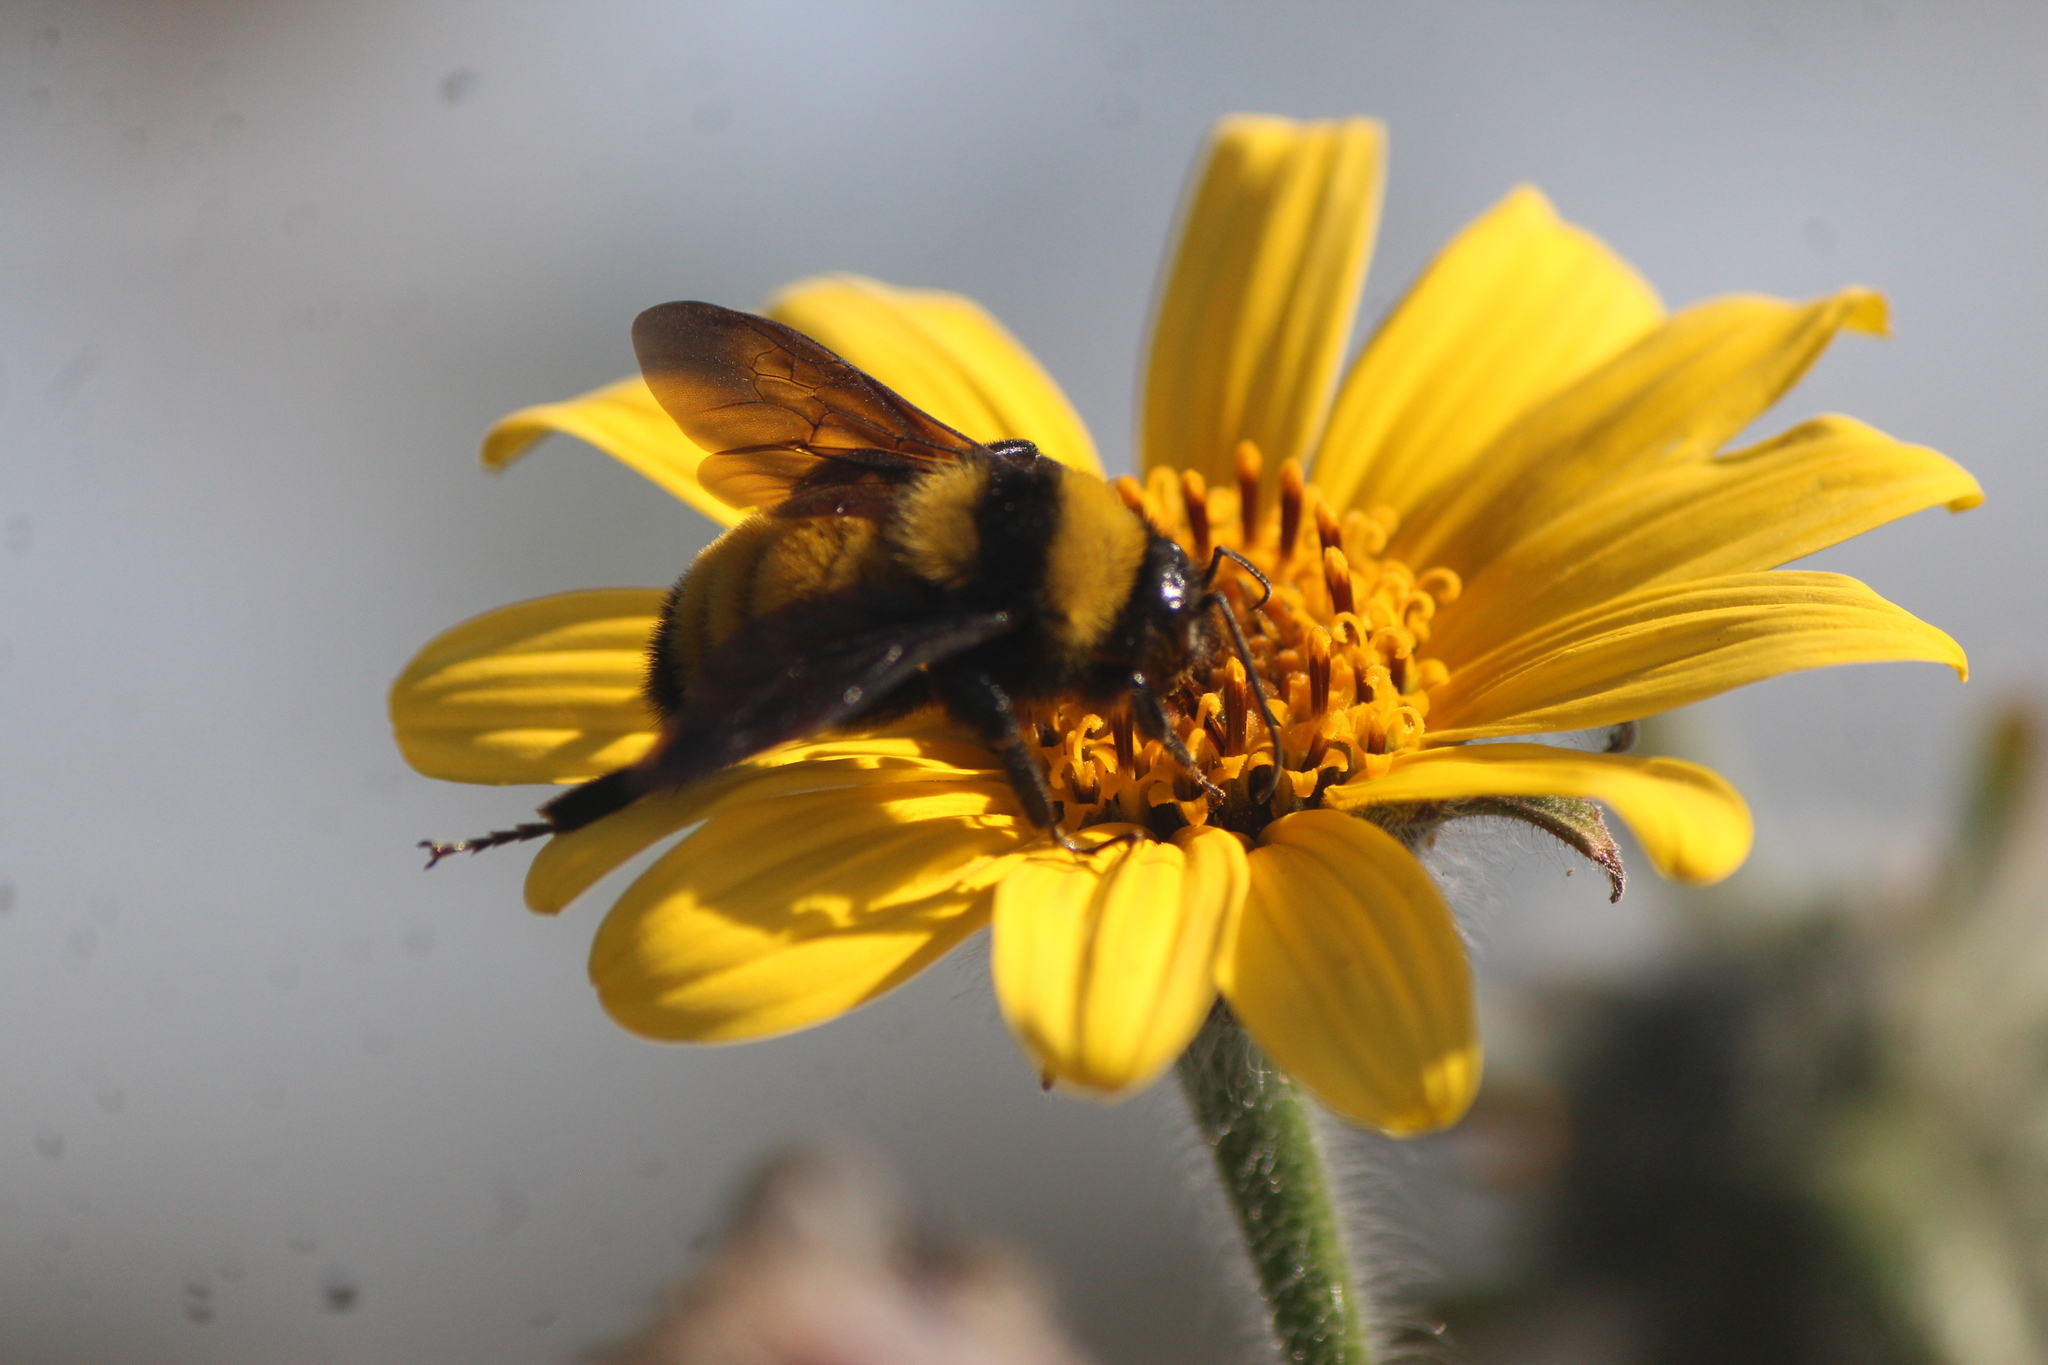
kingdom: Animalia
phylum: Arthropoda
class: Insecta
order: Hymenoptera
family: Apidae
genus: Bombus
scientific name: Bombus sonorus
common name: Sonoran bumble bee
